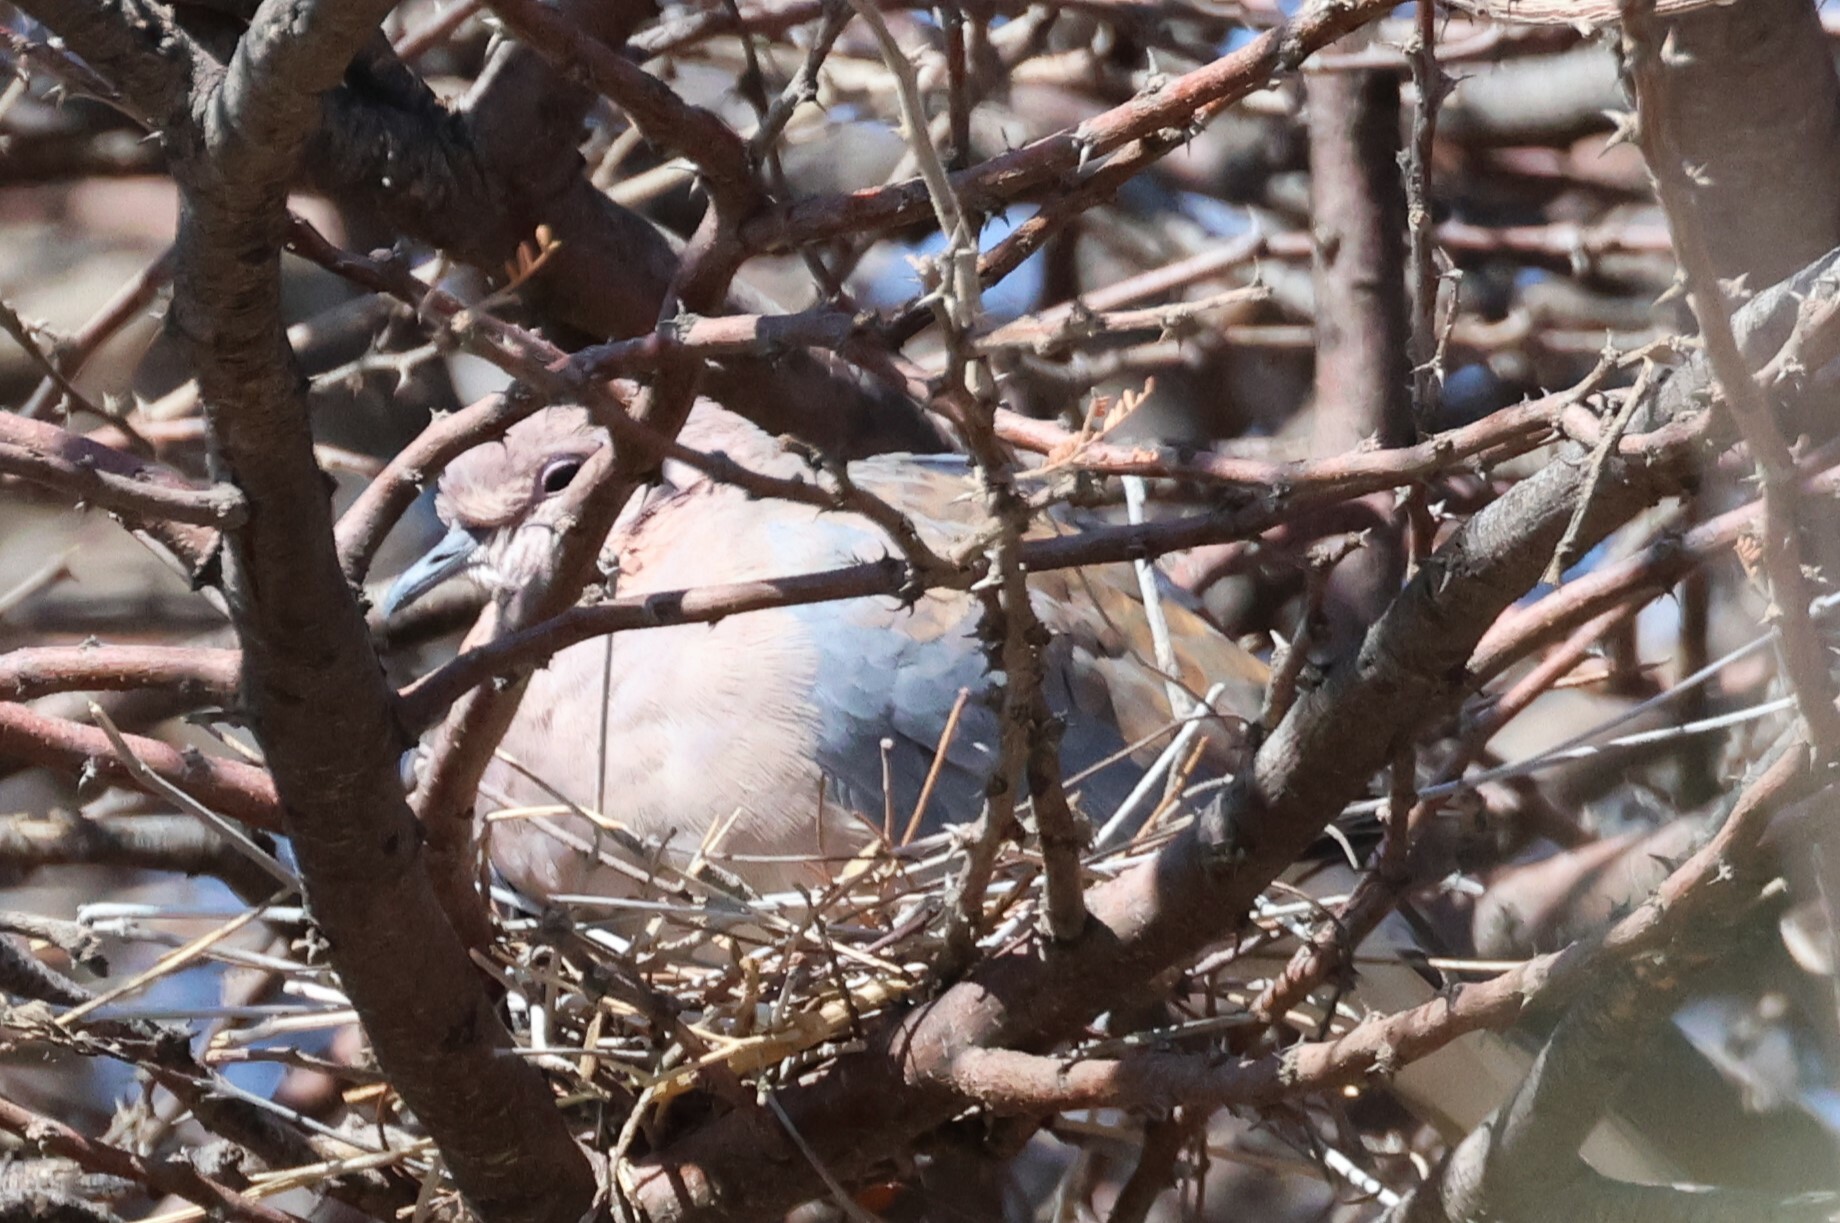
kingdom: Animalia
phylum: Chordata
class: Aves
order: Columbiformes
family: Columbidae
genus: Spilopelia
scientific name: Spilopelia senegalensis
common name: Laughing dove
